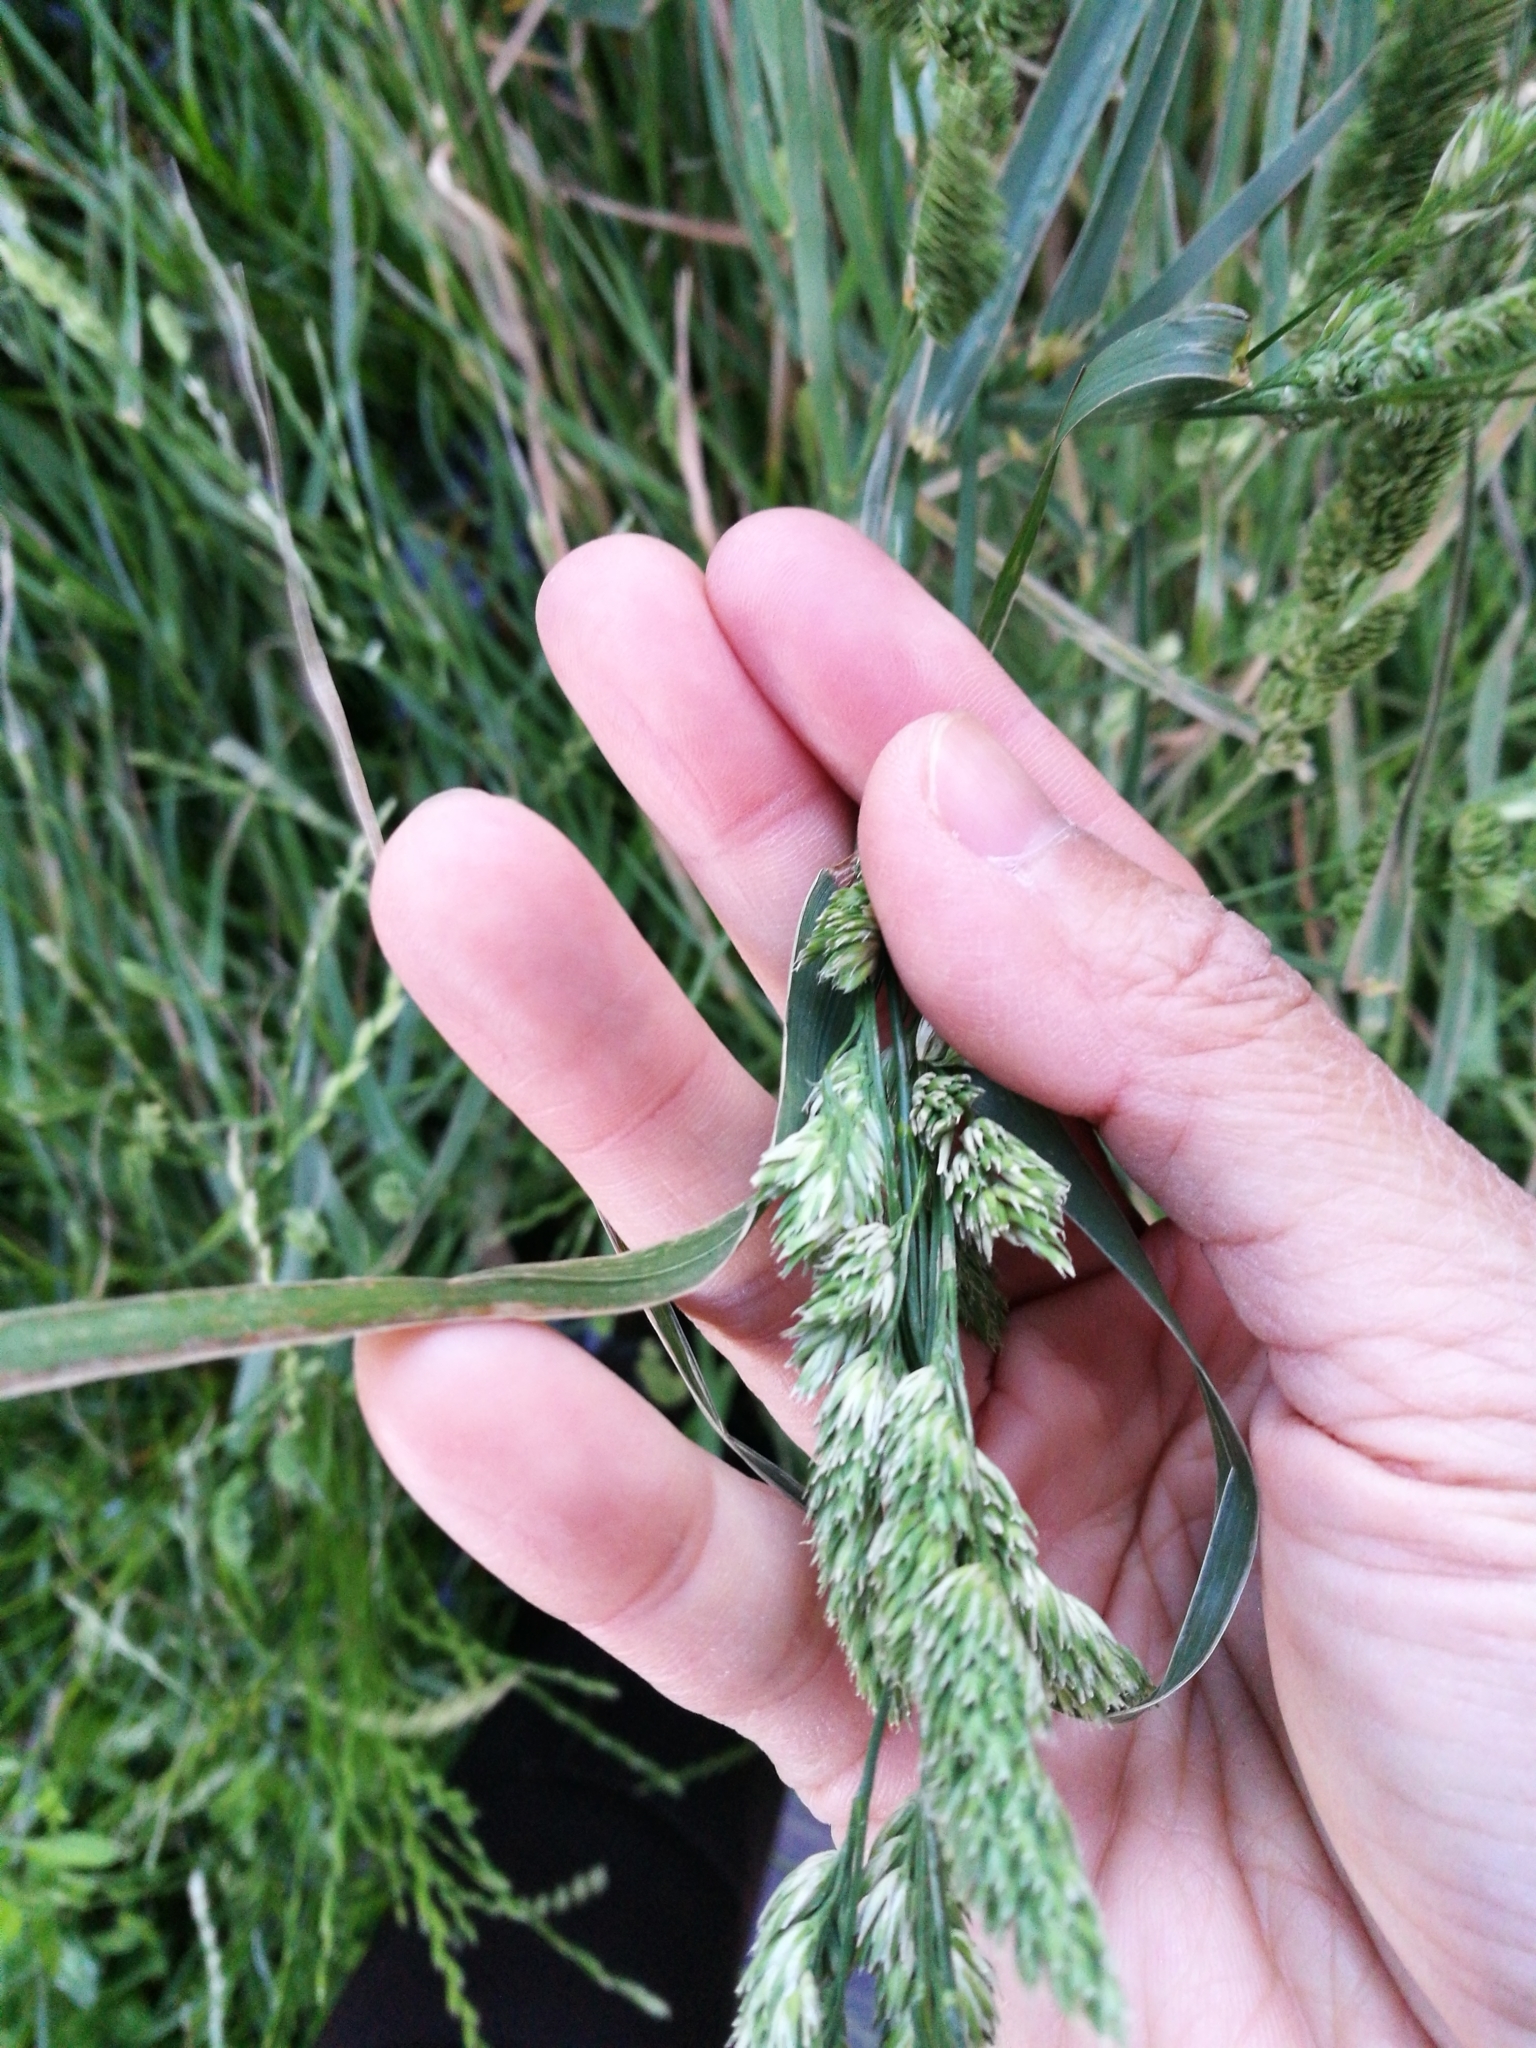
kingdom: Plantae
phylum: Tracheophyta
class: Liliopsida
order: Poales
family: Poaceae
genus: Dactylis
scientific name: Dactylis glomerata
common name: Orchardgrass
